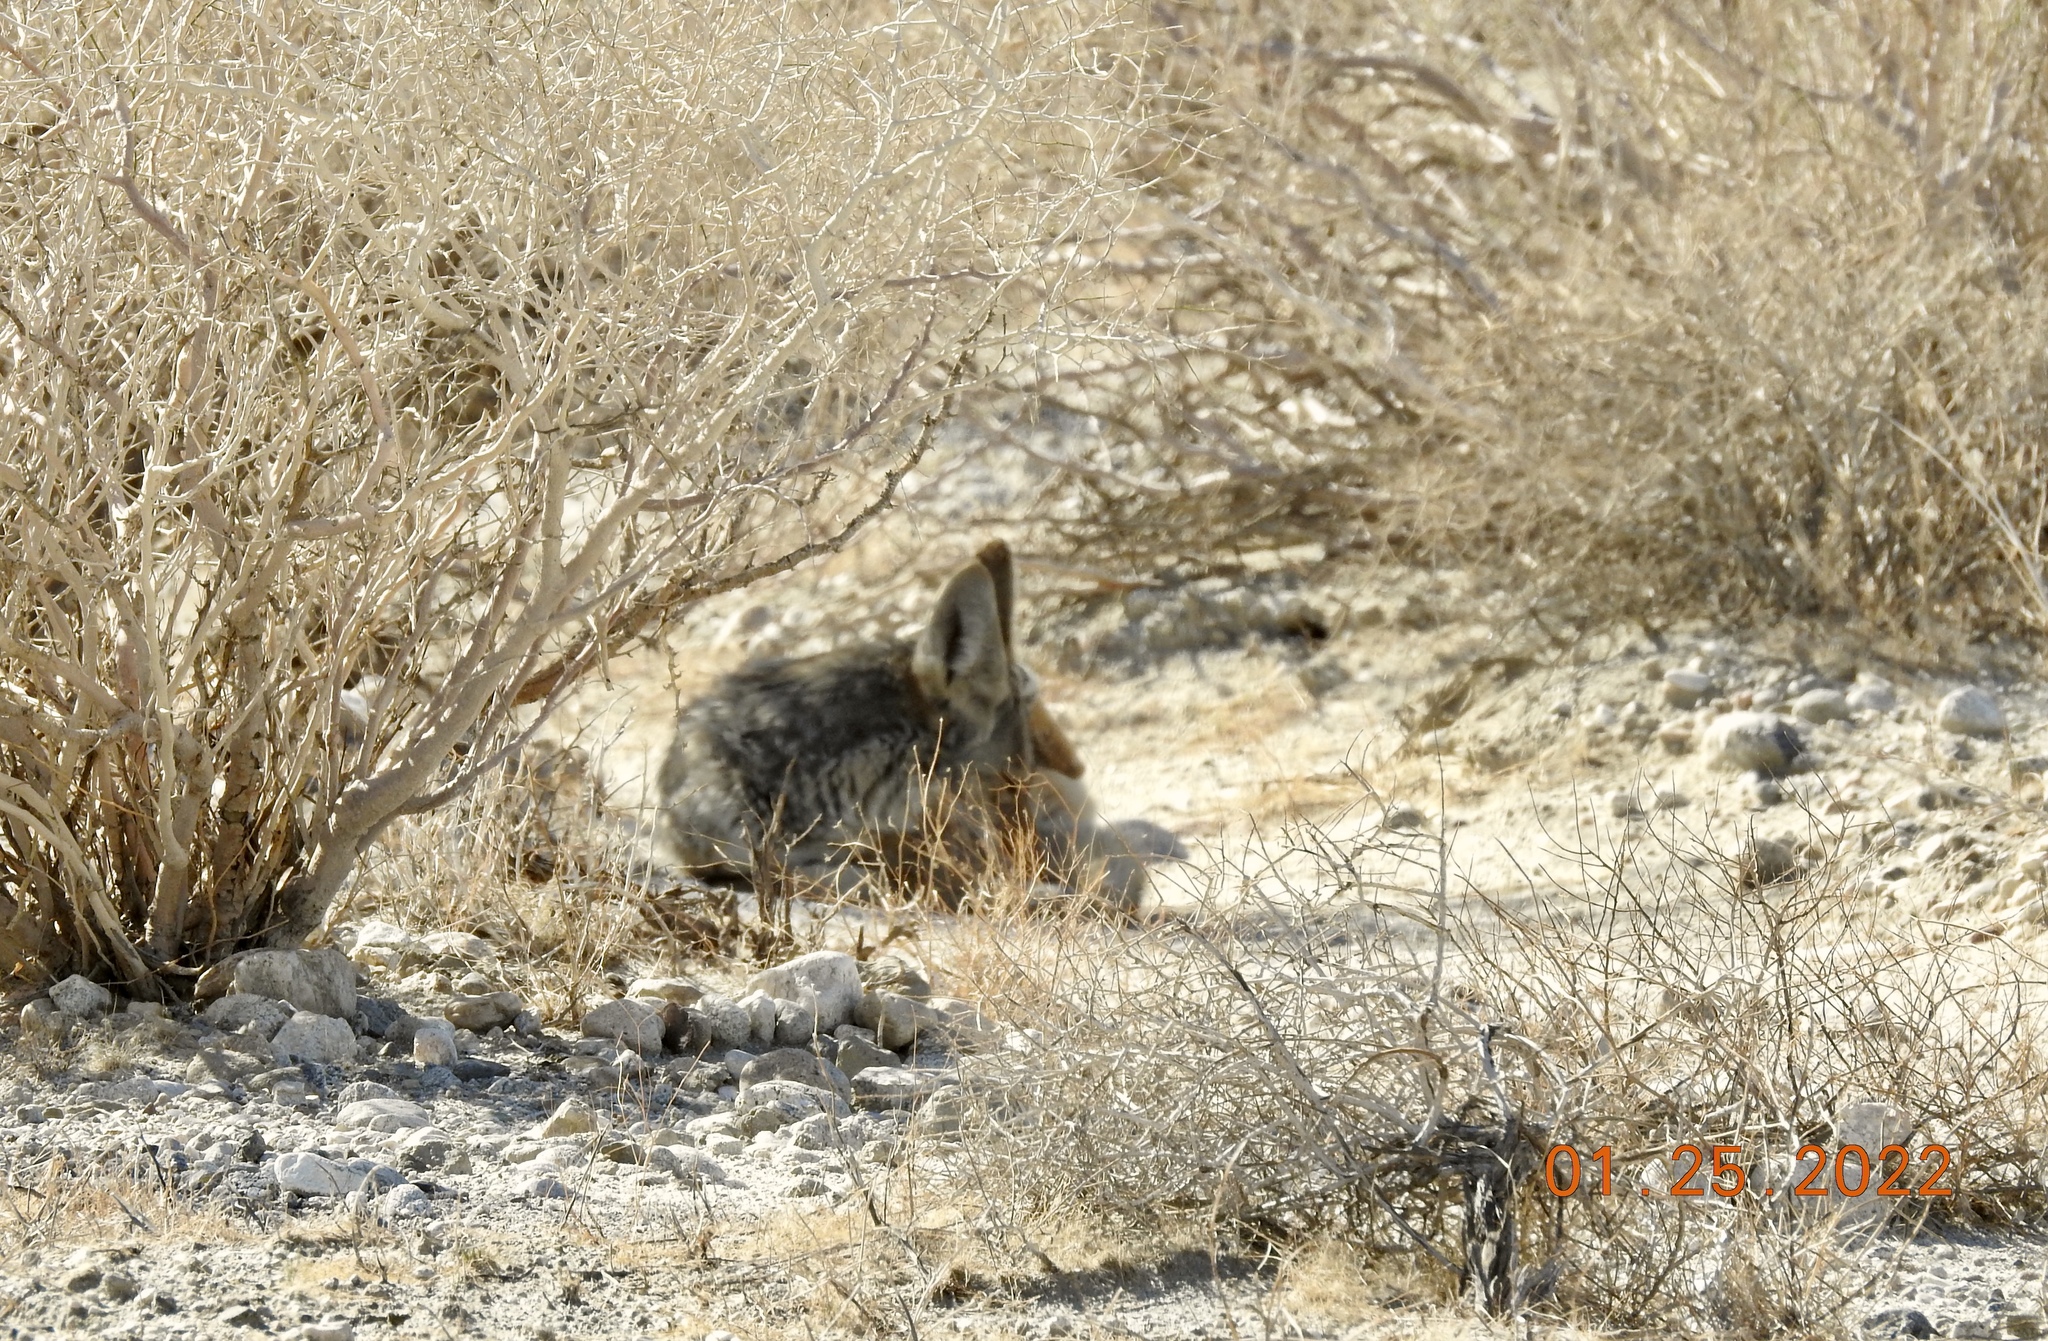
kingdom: Animalia
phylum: Chordata
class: Mammalia
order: Carnivora
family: Canidae
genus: Canis
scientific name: Canis latrans
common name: Coyote
